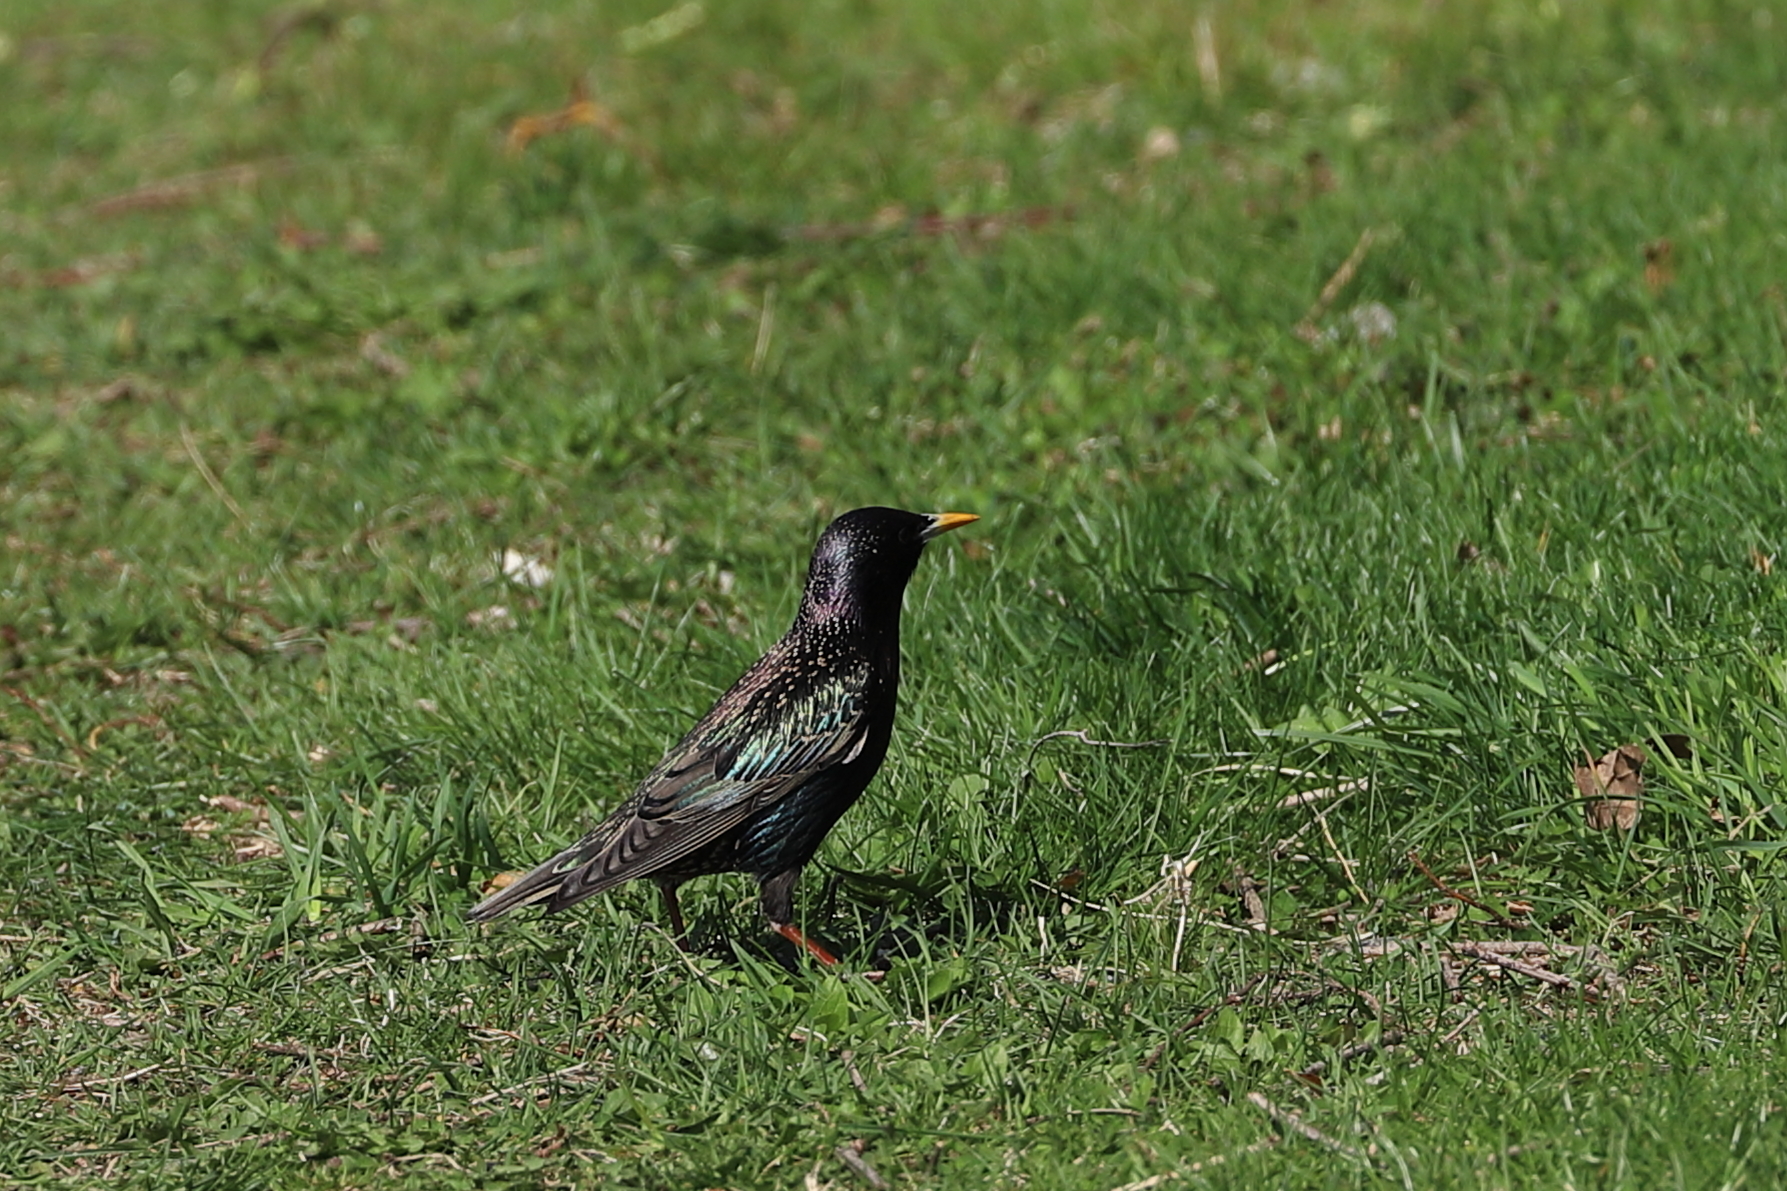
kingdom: Animalia
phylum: Chordata
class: Aves
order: Passeriformes
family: Sturnidae
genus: Sturnus
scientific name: Sturnus vulgaris
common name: Common starling
